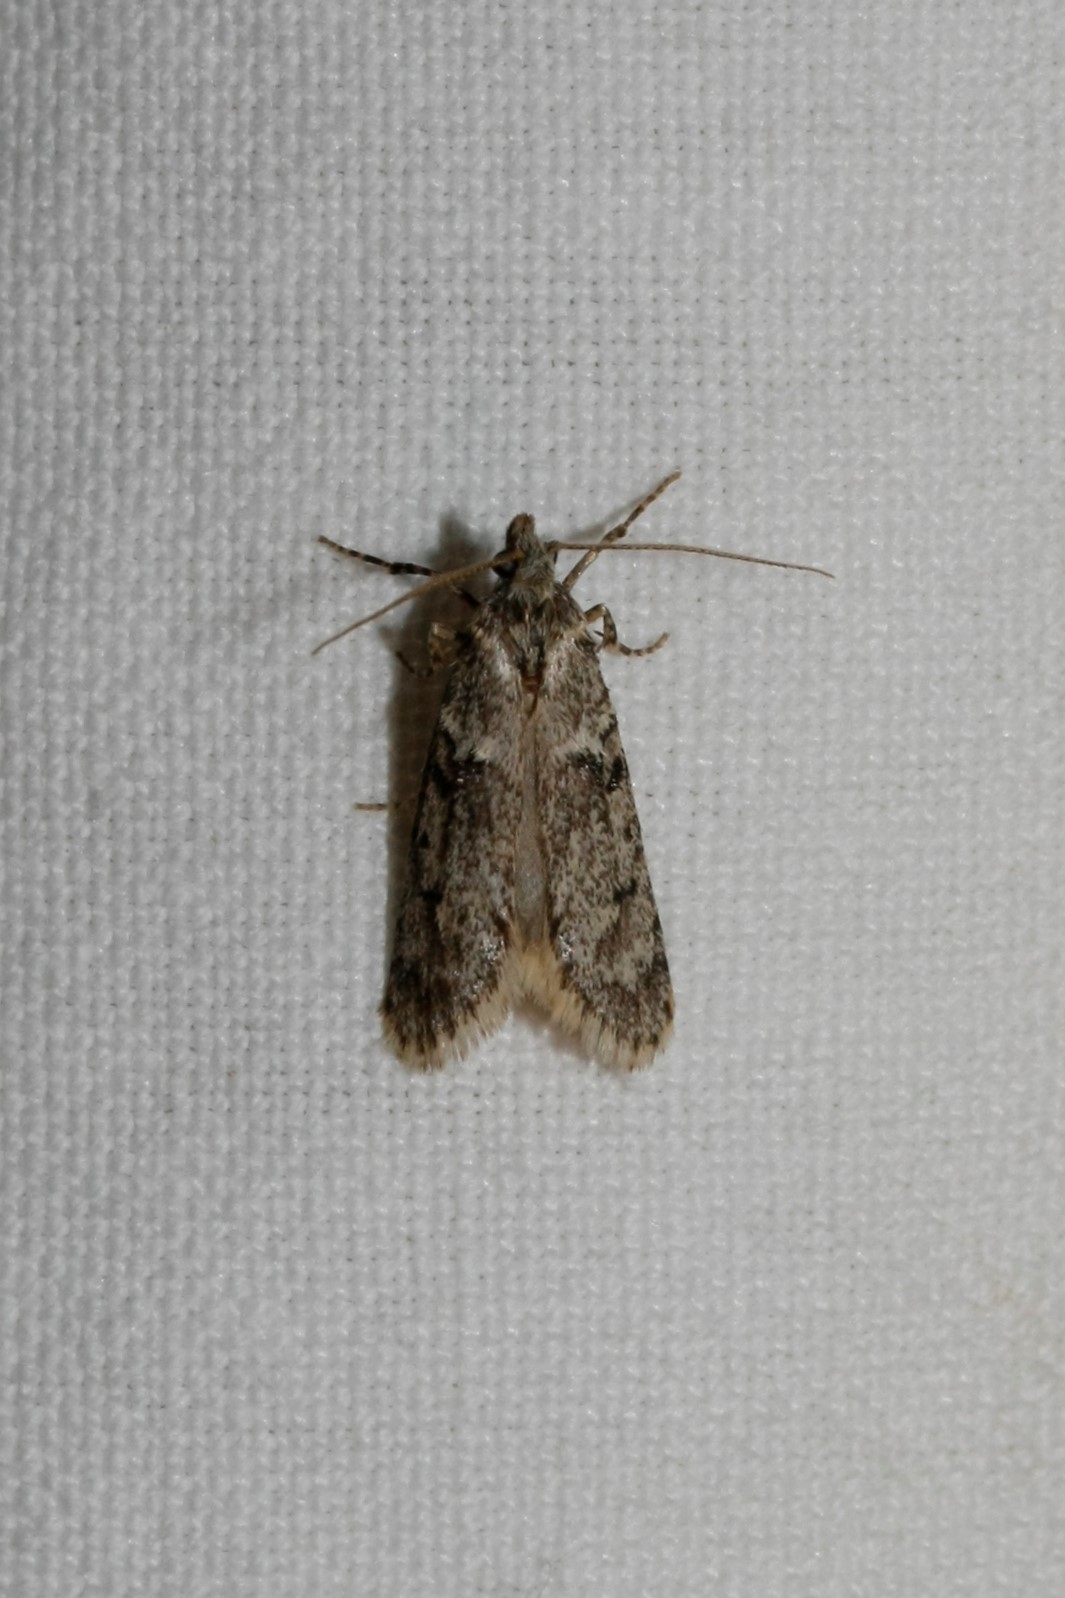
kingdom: Animalia
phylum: Arthropoda
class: Insecta
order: Lepidoptera
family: Lypusidae
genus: Diurnea
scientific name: Diurnea fagella
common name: March tubic
